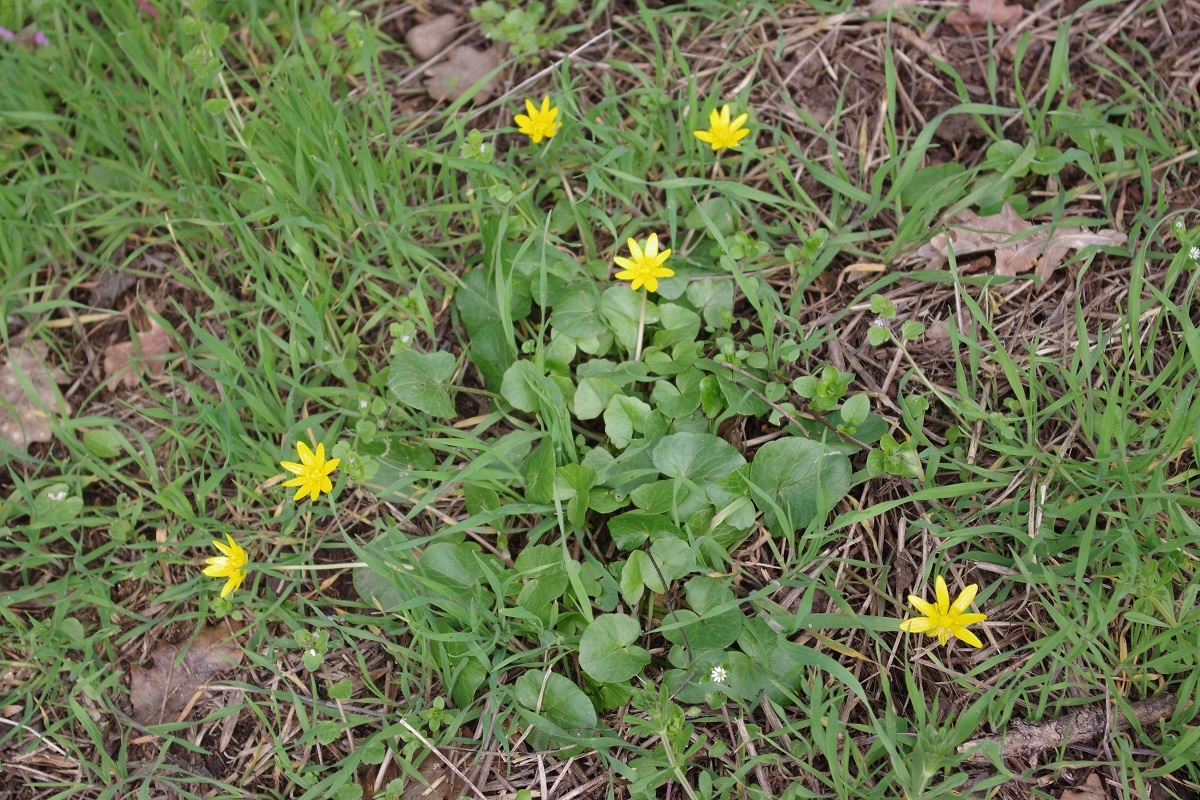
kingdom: Plantae
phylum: Tracheophyta
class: Magnoliopsida
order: Ranunculales
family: Ranunculaceae
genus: Ficaria
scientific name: Ficaria verna
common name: Lesser celandine
